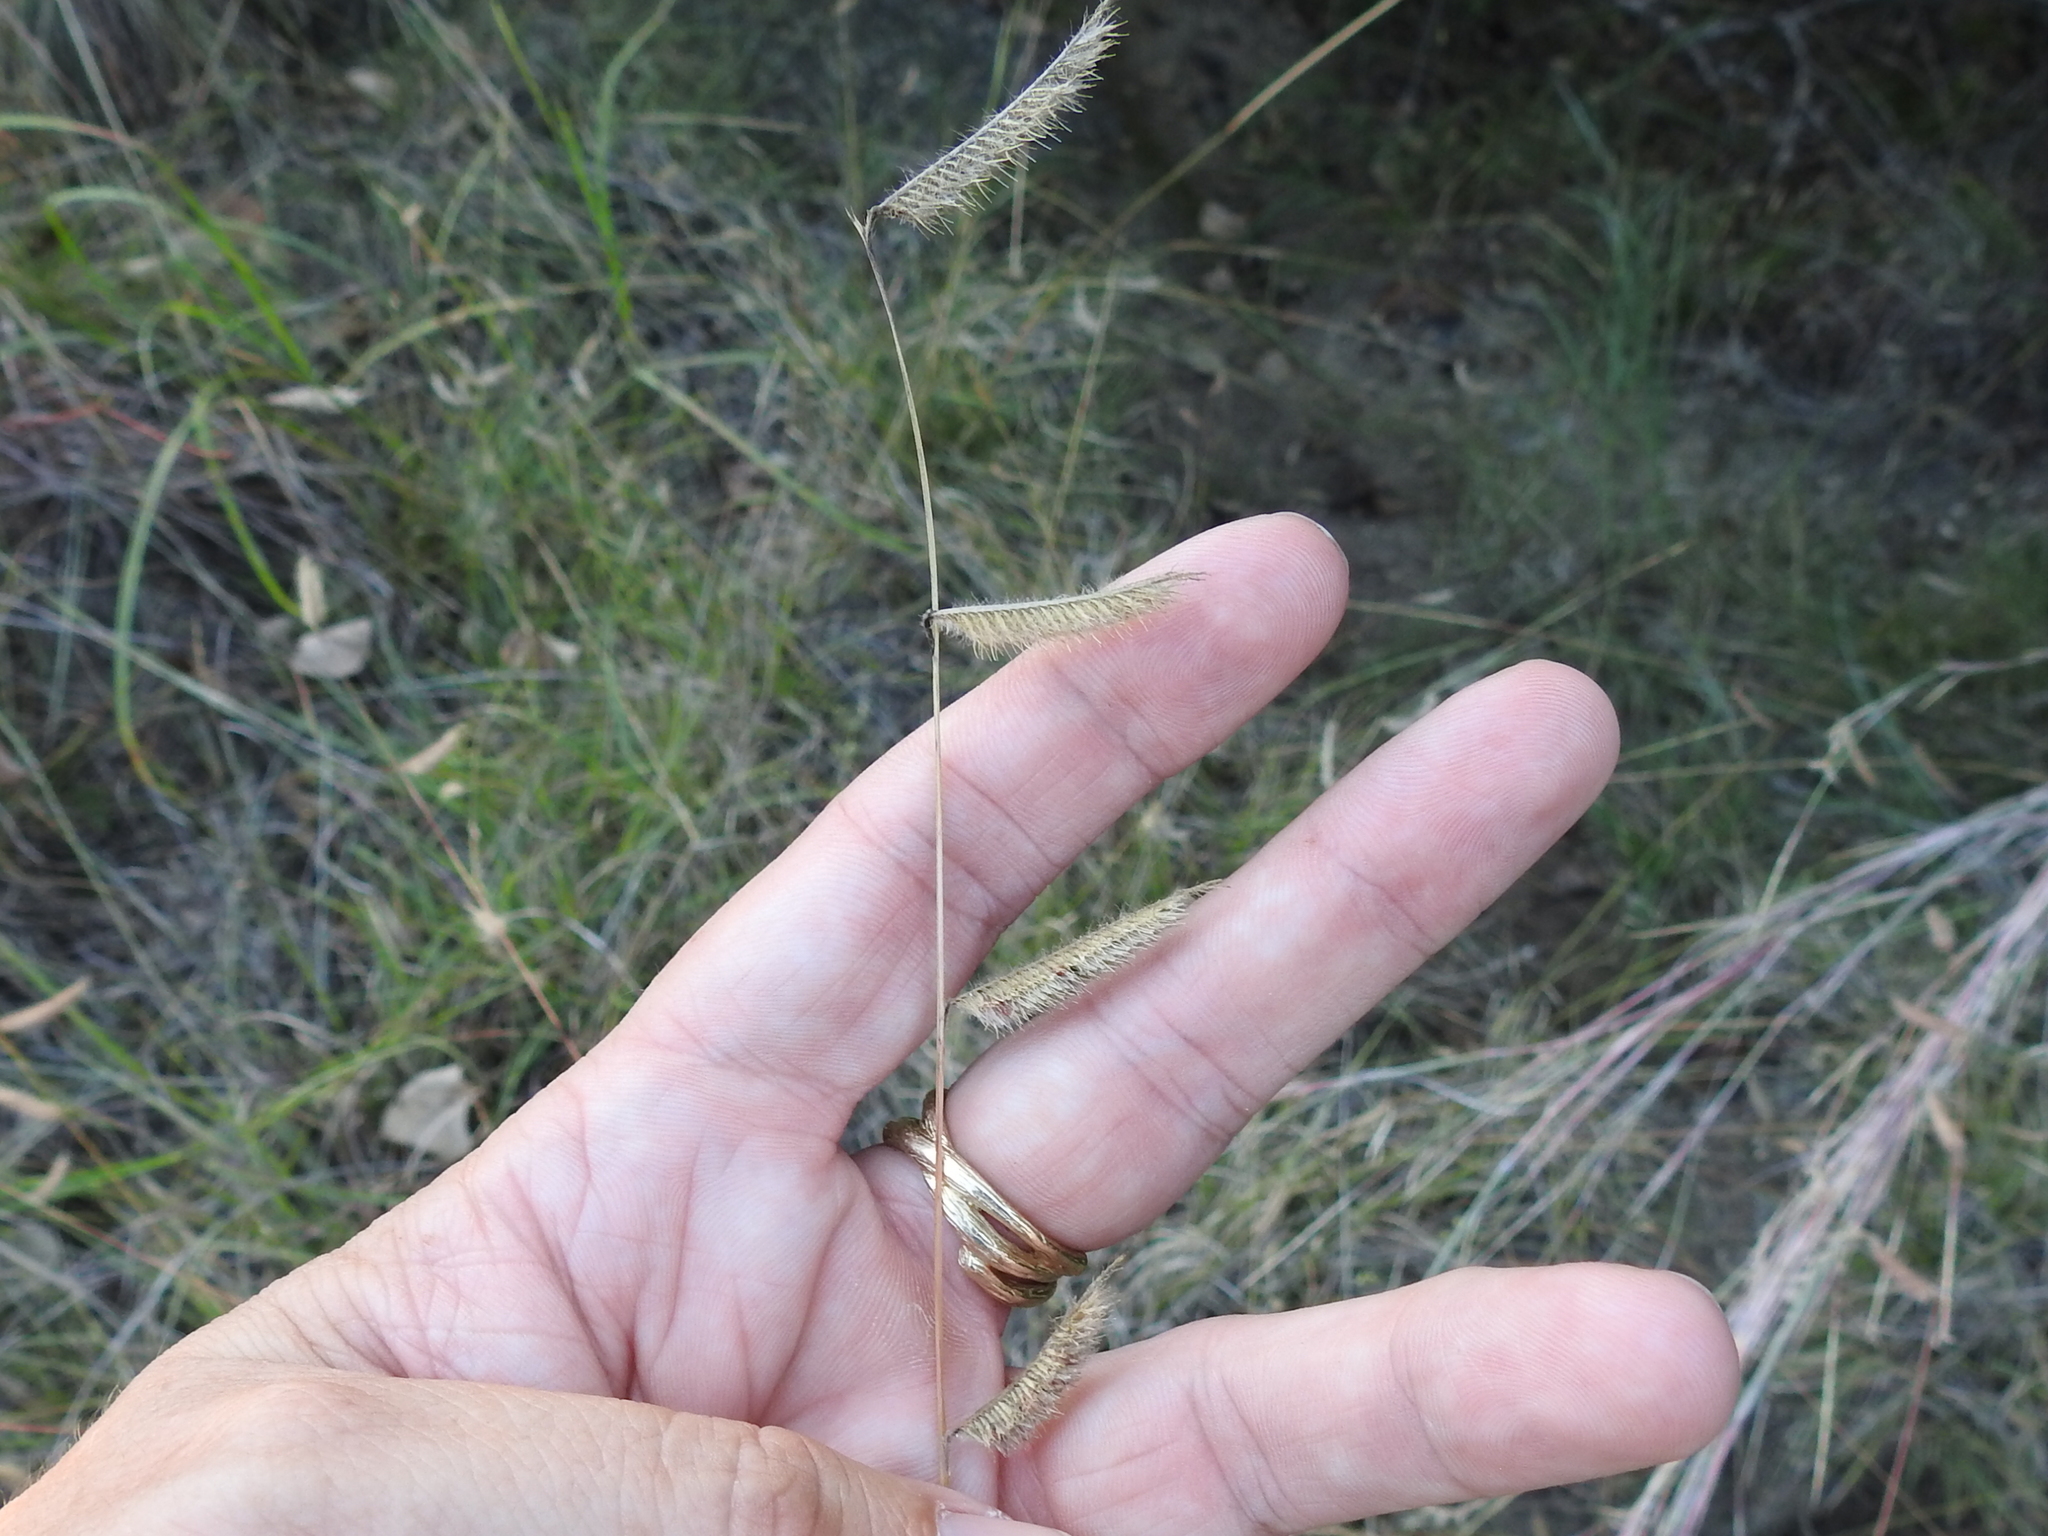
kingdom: Plantae
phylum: Tracheophyta
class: Liliopsida
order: Poales
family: Poaceae
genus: Bouteloua
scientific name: Bouteloua pectinata
